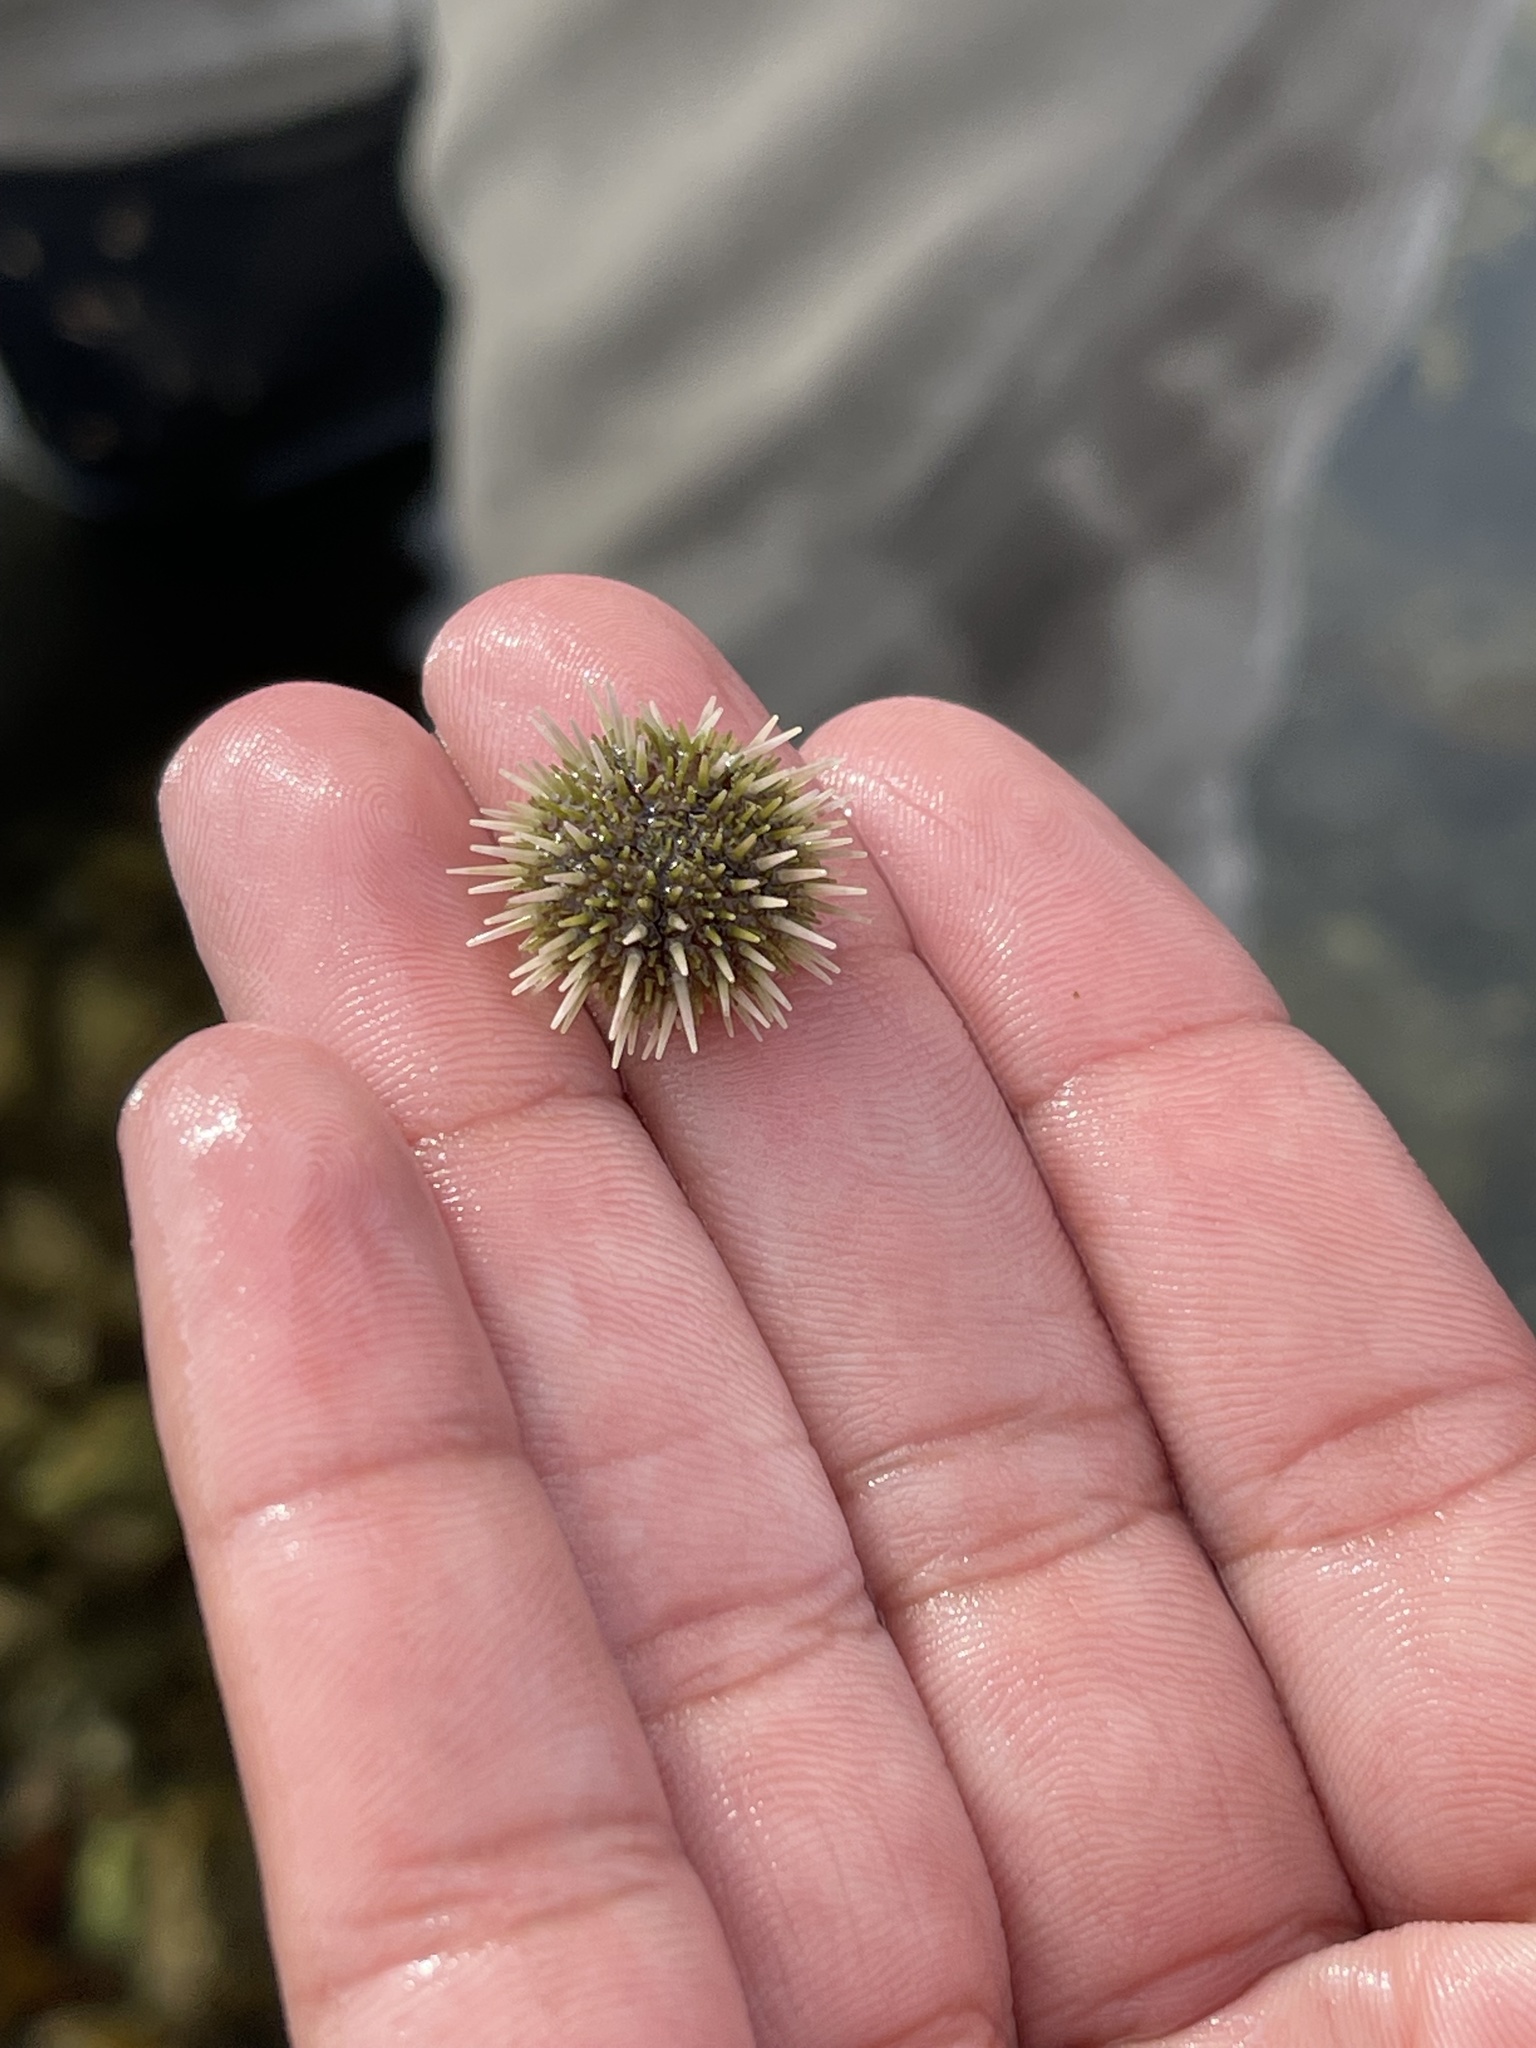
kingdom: Animalia
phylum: Echinodermata
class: Echinoidea
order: Camarodonta
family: Strongylocentrotidae
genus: Strongylocentrotus
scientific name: Strongylocentrotus droebachiensis
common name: Northern sea urchin
